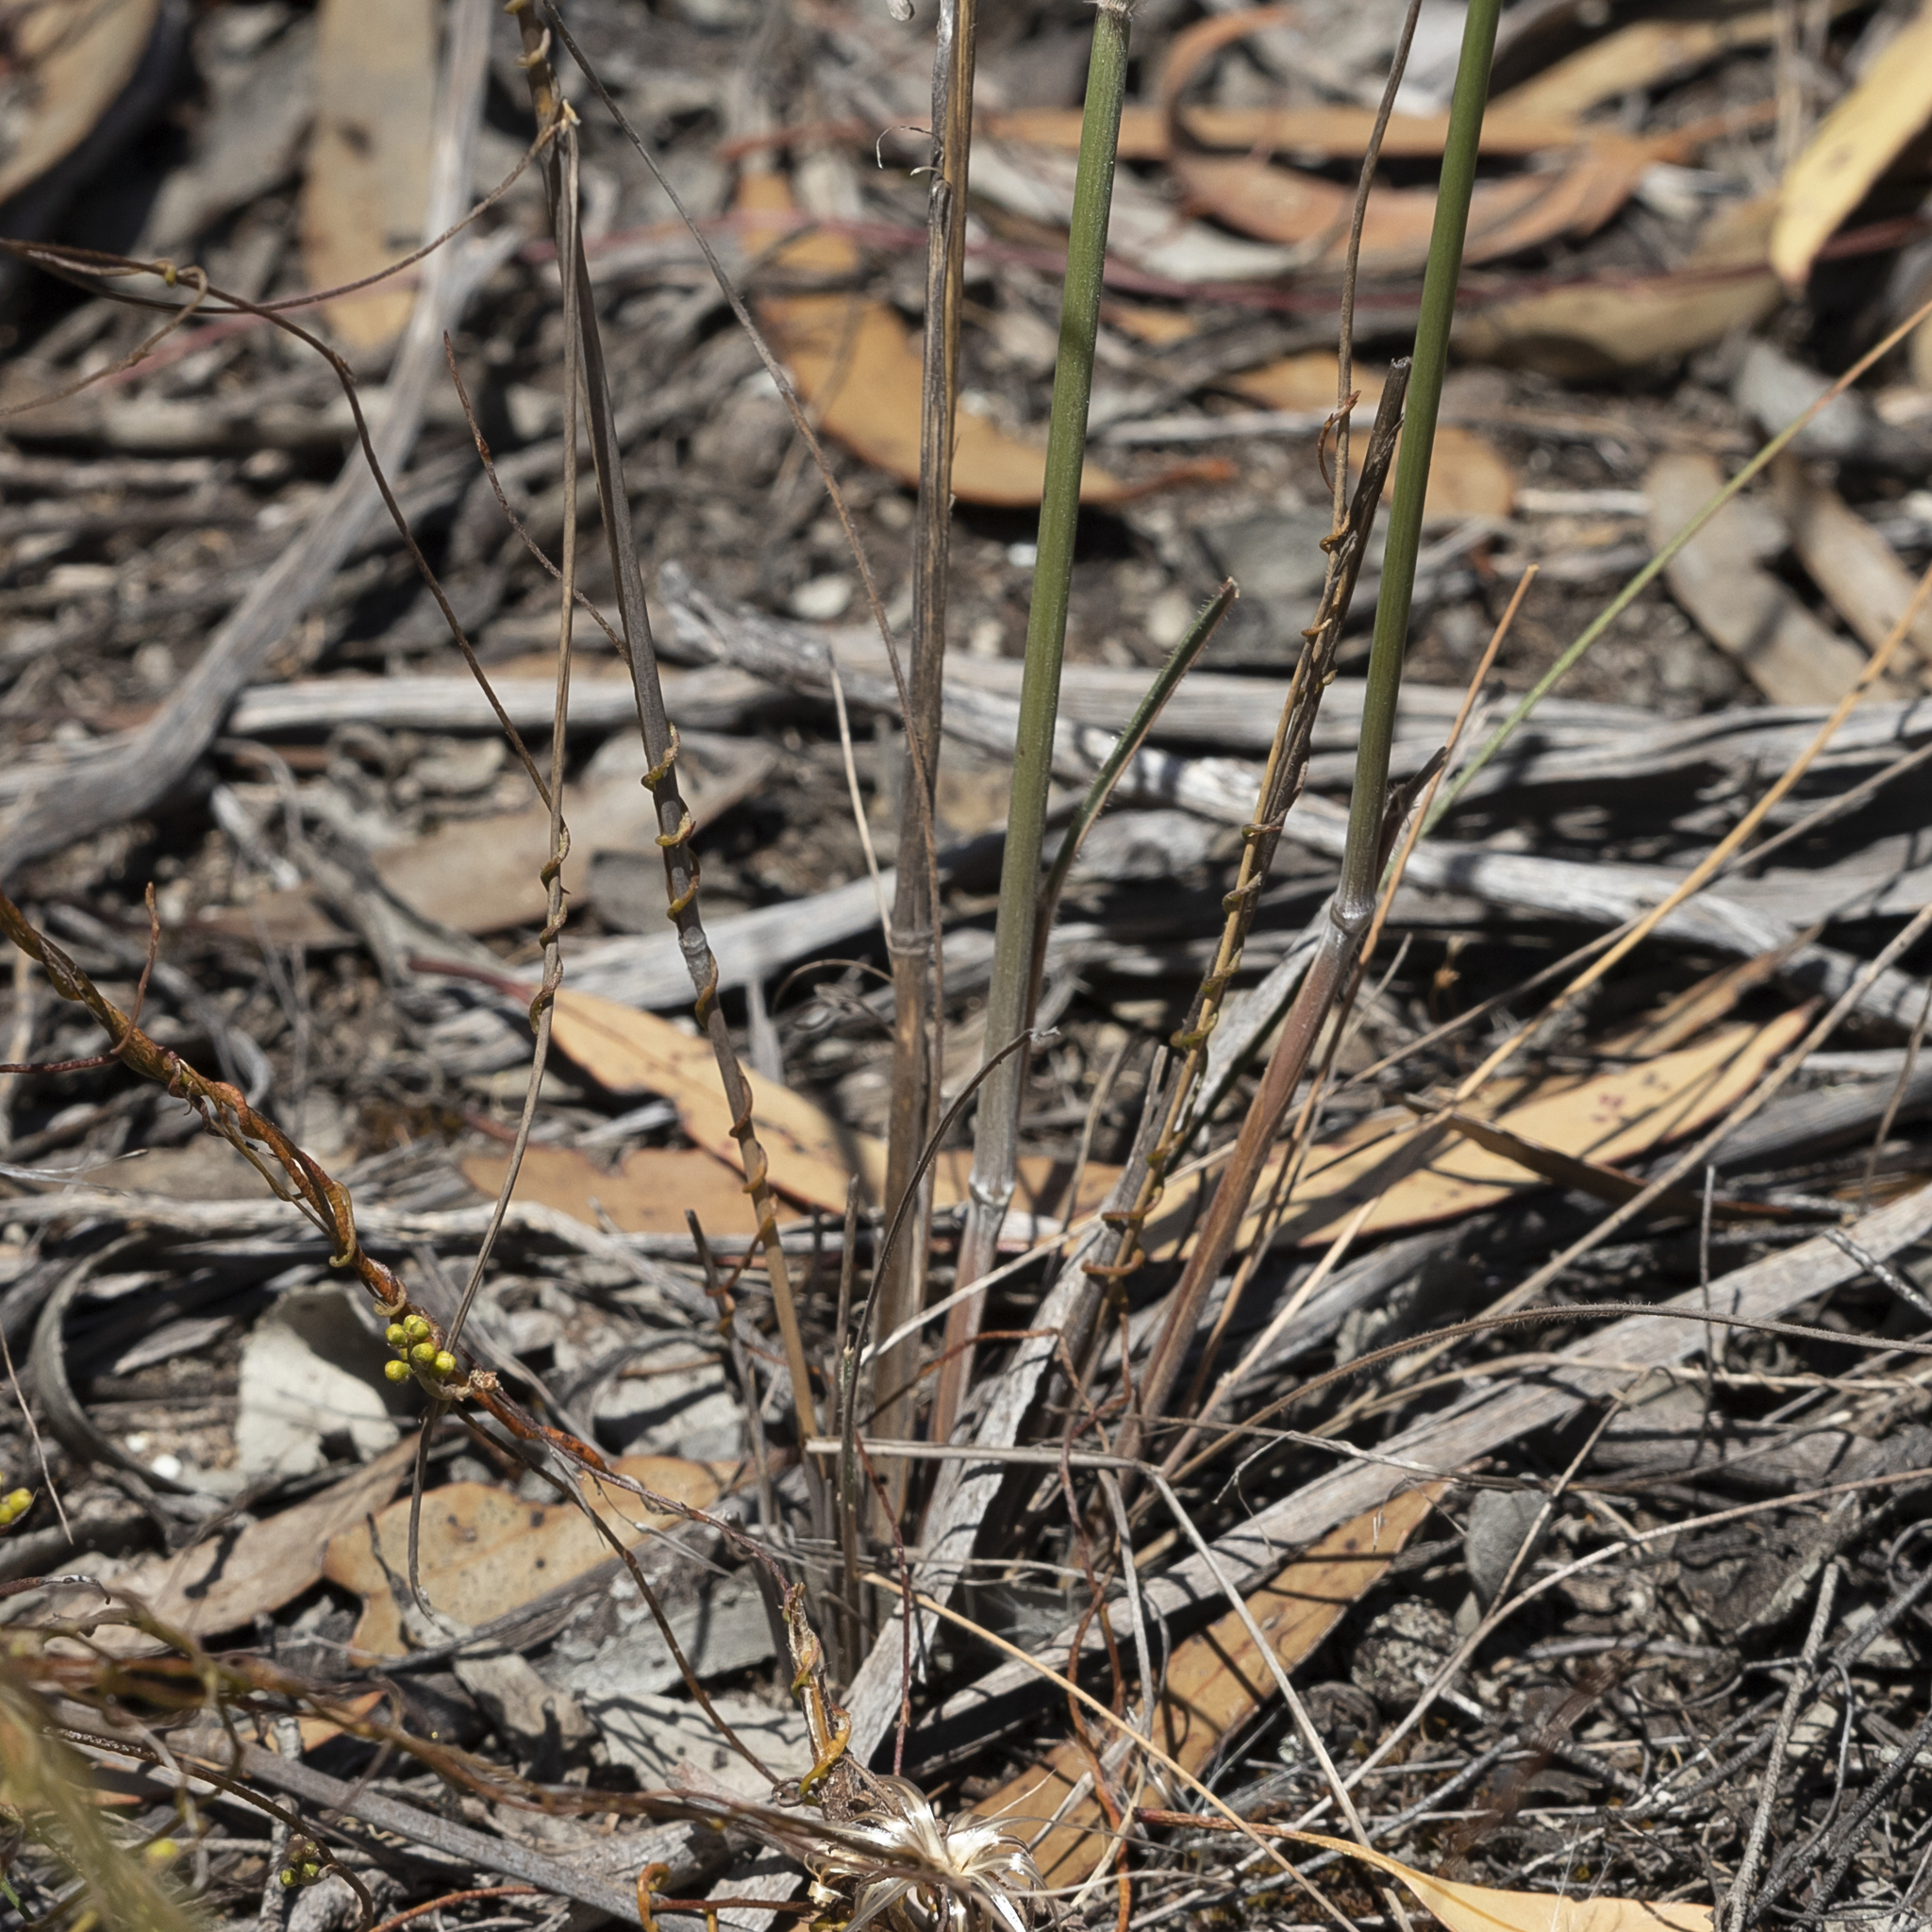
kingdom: Plantae
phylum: Tracheophyta
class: Liliopsida
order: Poales
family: Poaceae
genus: Austrostipa
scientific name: Austrostipa mollis
